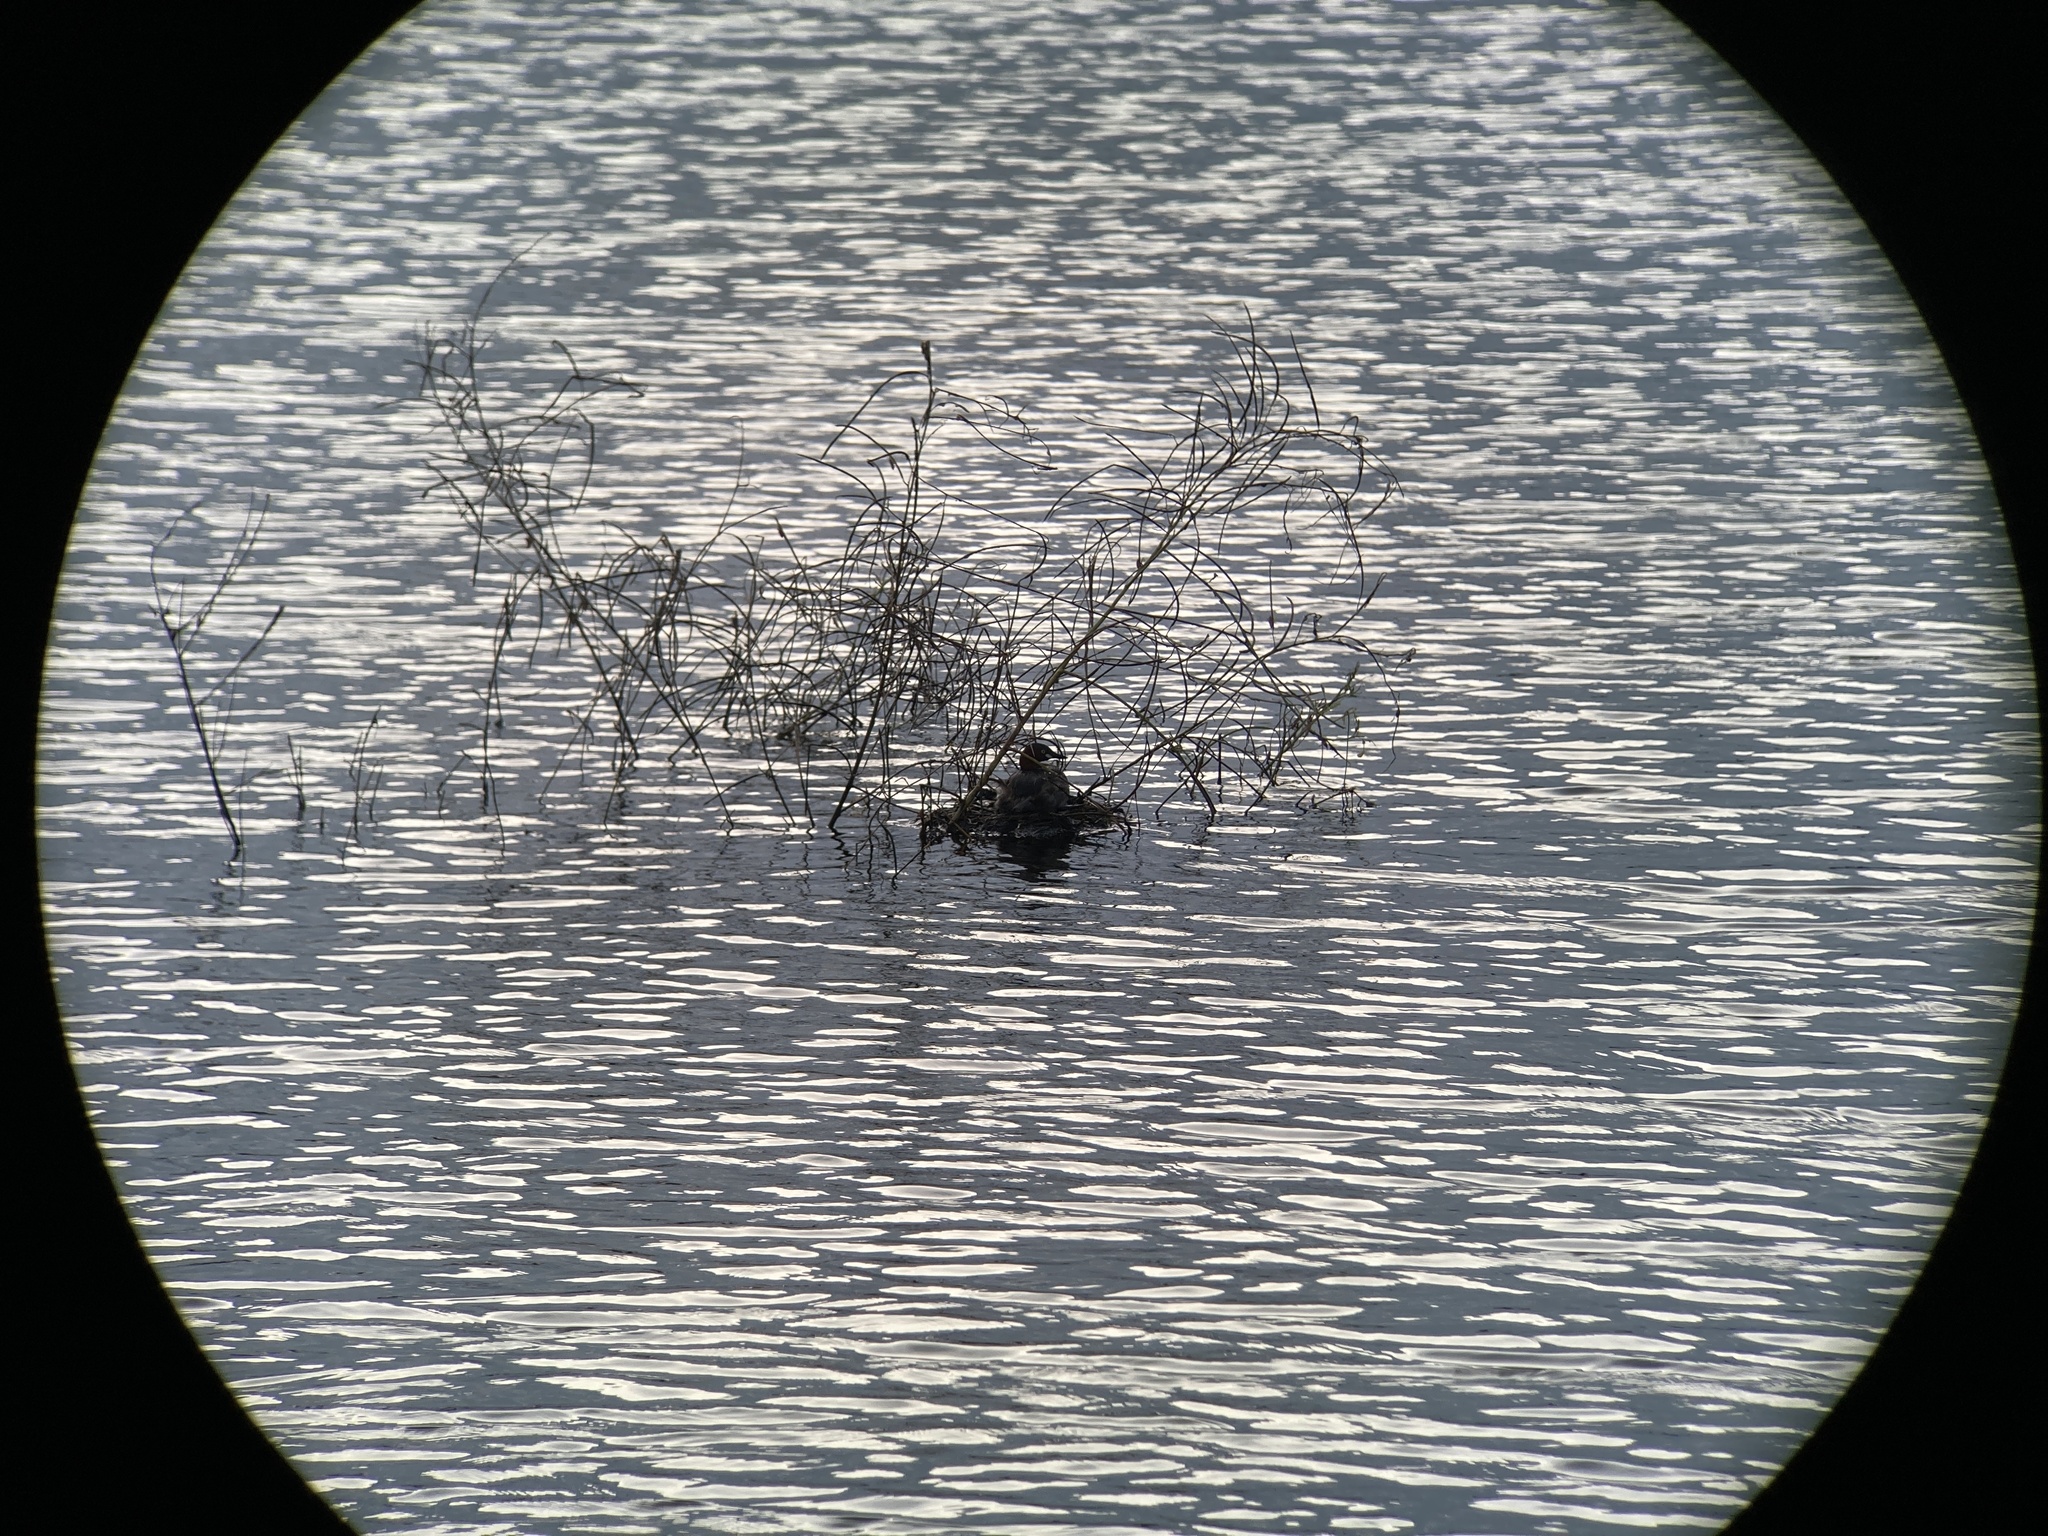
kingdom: Animalia
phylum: Chordata
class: Aves
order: Podicipediformes
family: Podicipedidae
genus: Tachybaptus
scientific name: Tachybaptus ruficollis
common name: Little grebe
